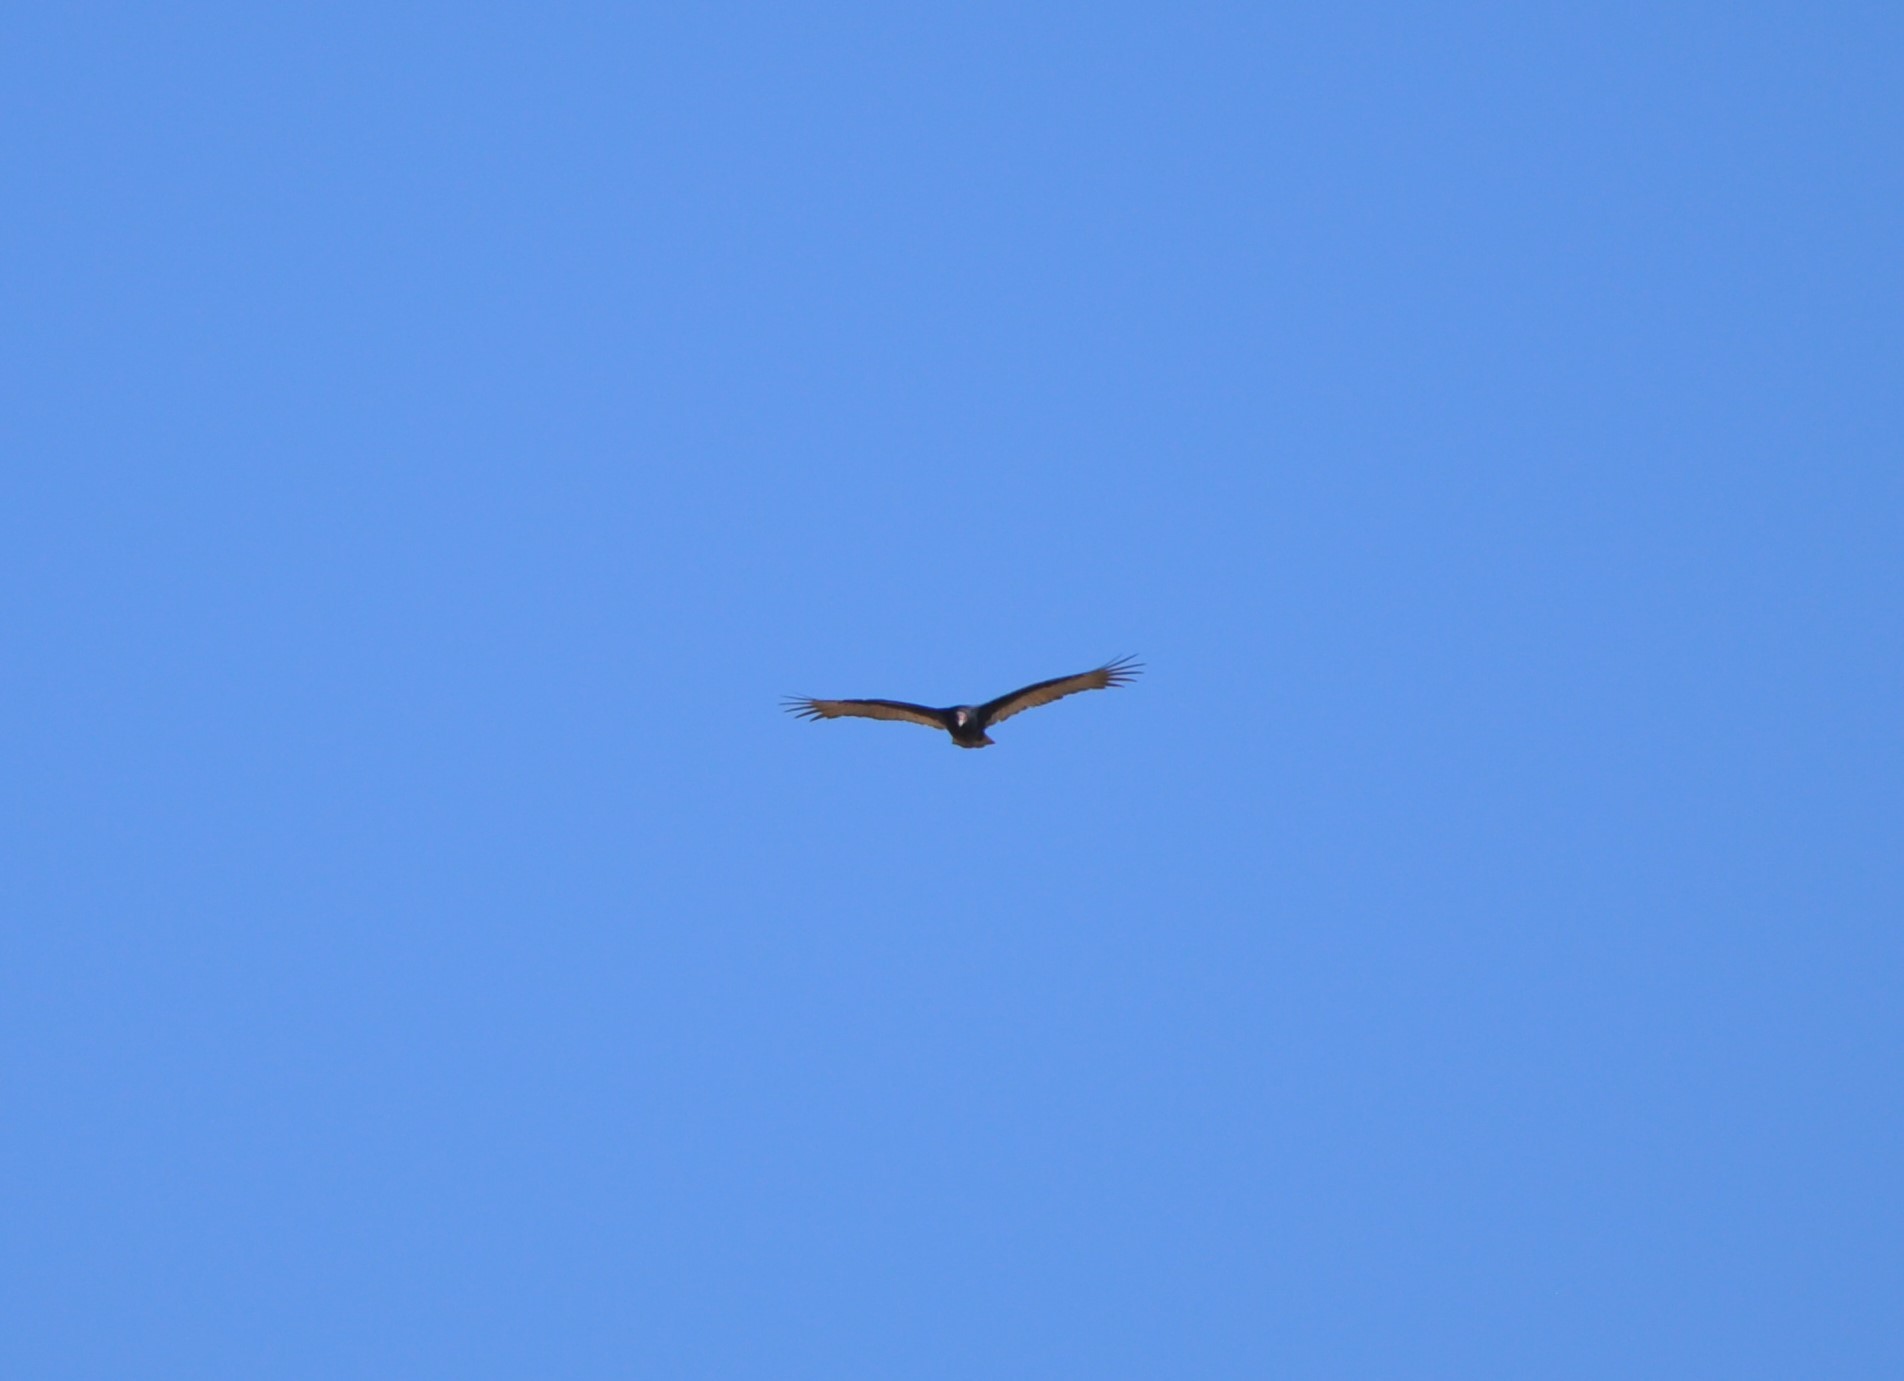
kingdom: Animalia
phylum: Chordata
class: Aves
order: Accipitriformes
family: Cathartidae
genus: Cathartes
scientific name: Cathartes aura
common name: Turkey vulture
